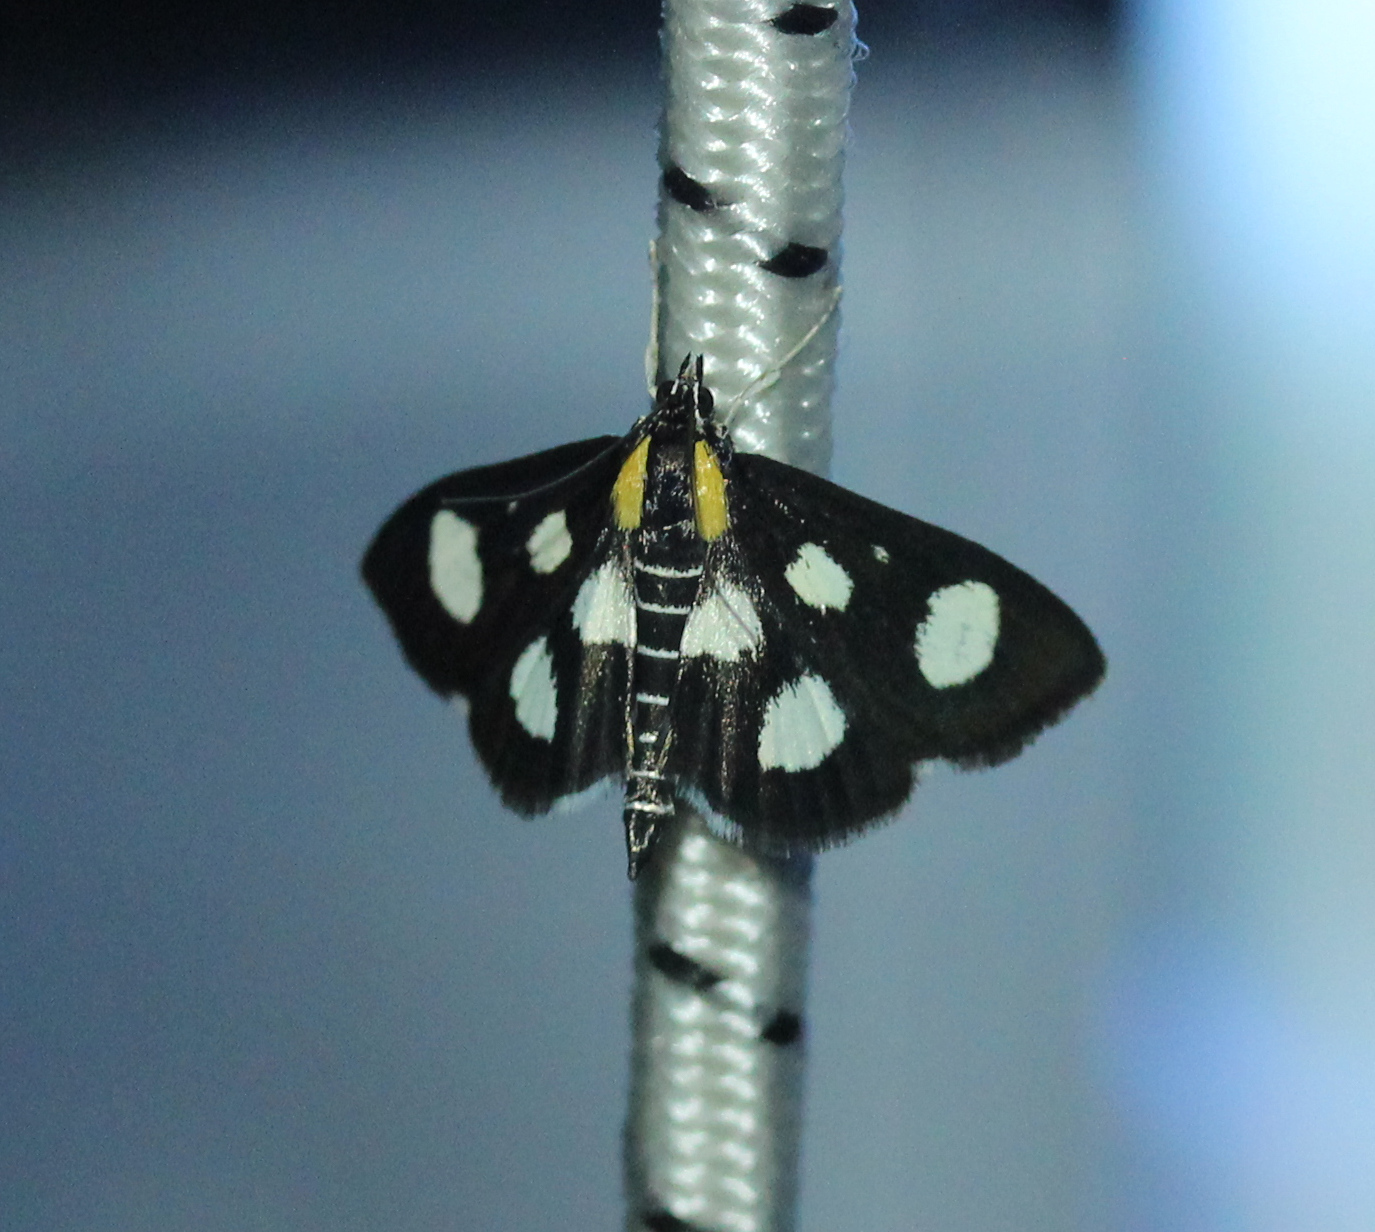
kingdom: Animalia
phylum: Arthropoda
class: Insecta
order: Lepidoptera
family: Crambidae
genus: Anania
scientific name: Anania funebris
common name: White-spotted sable moth
